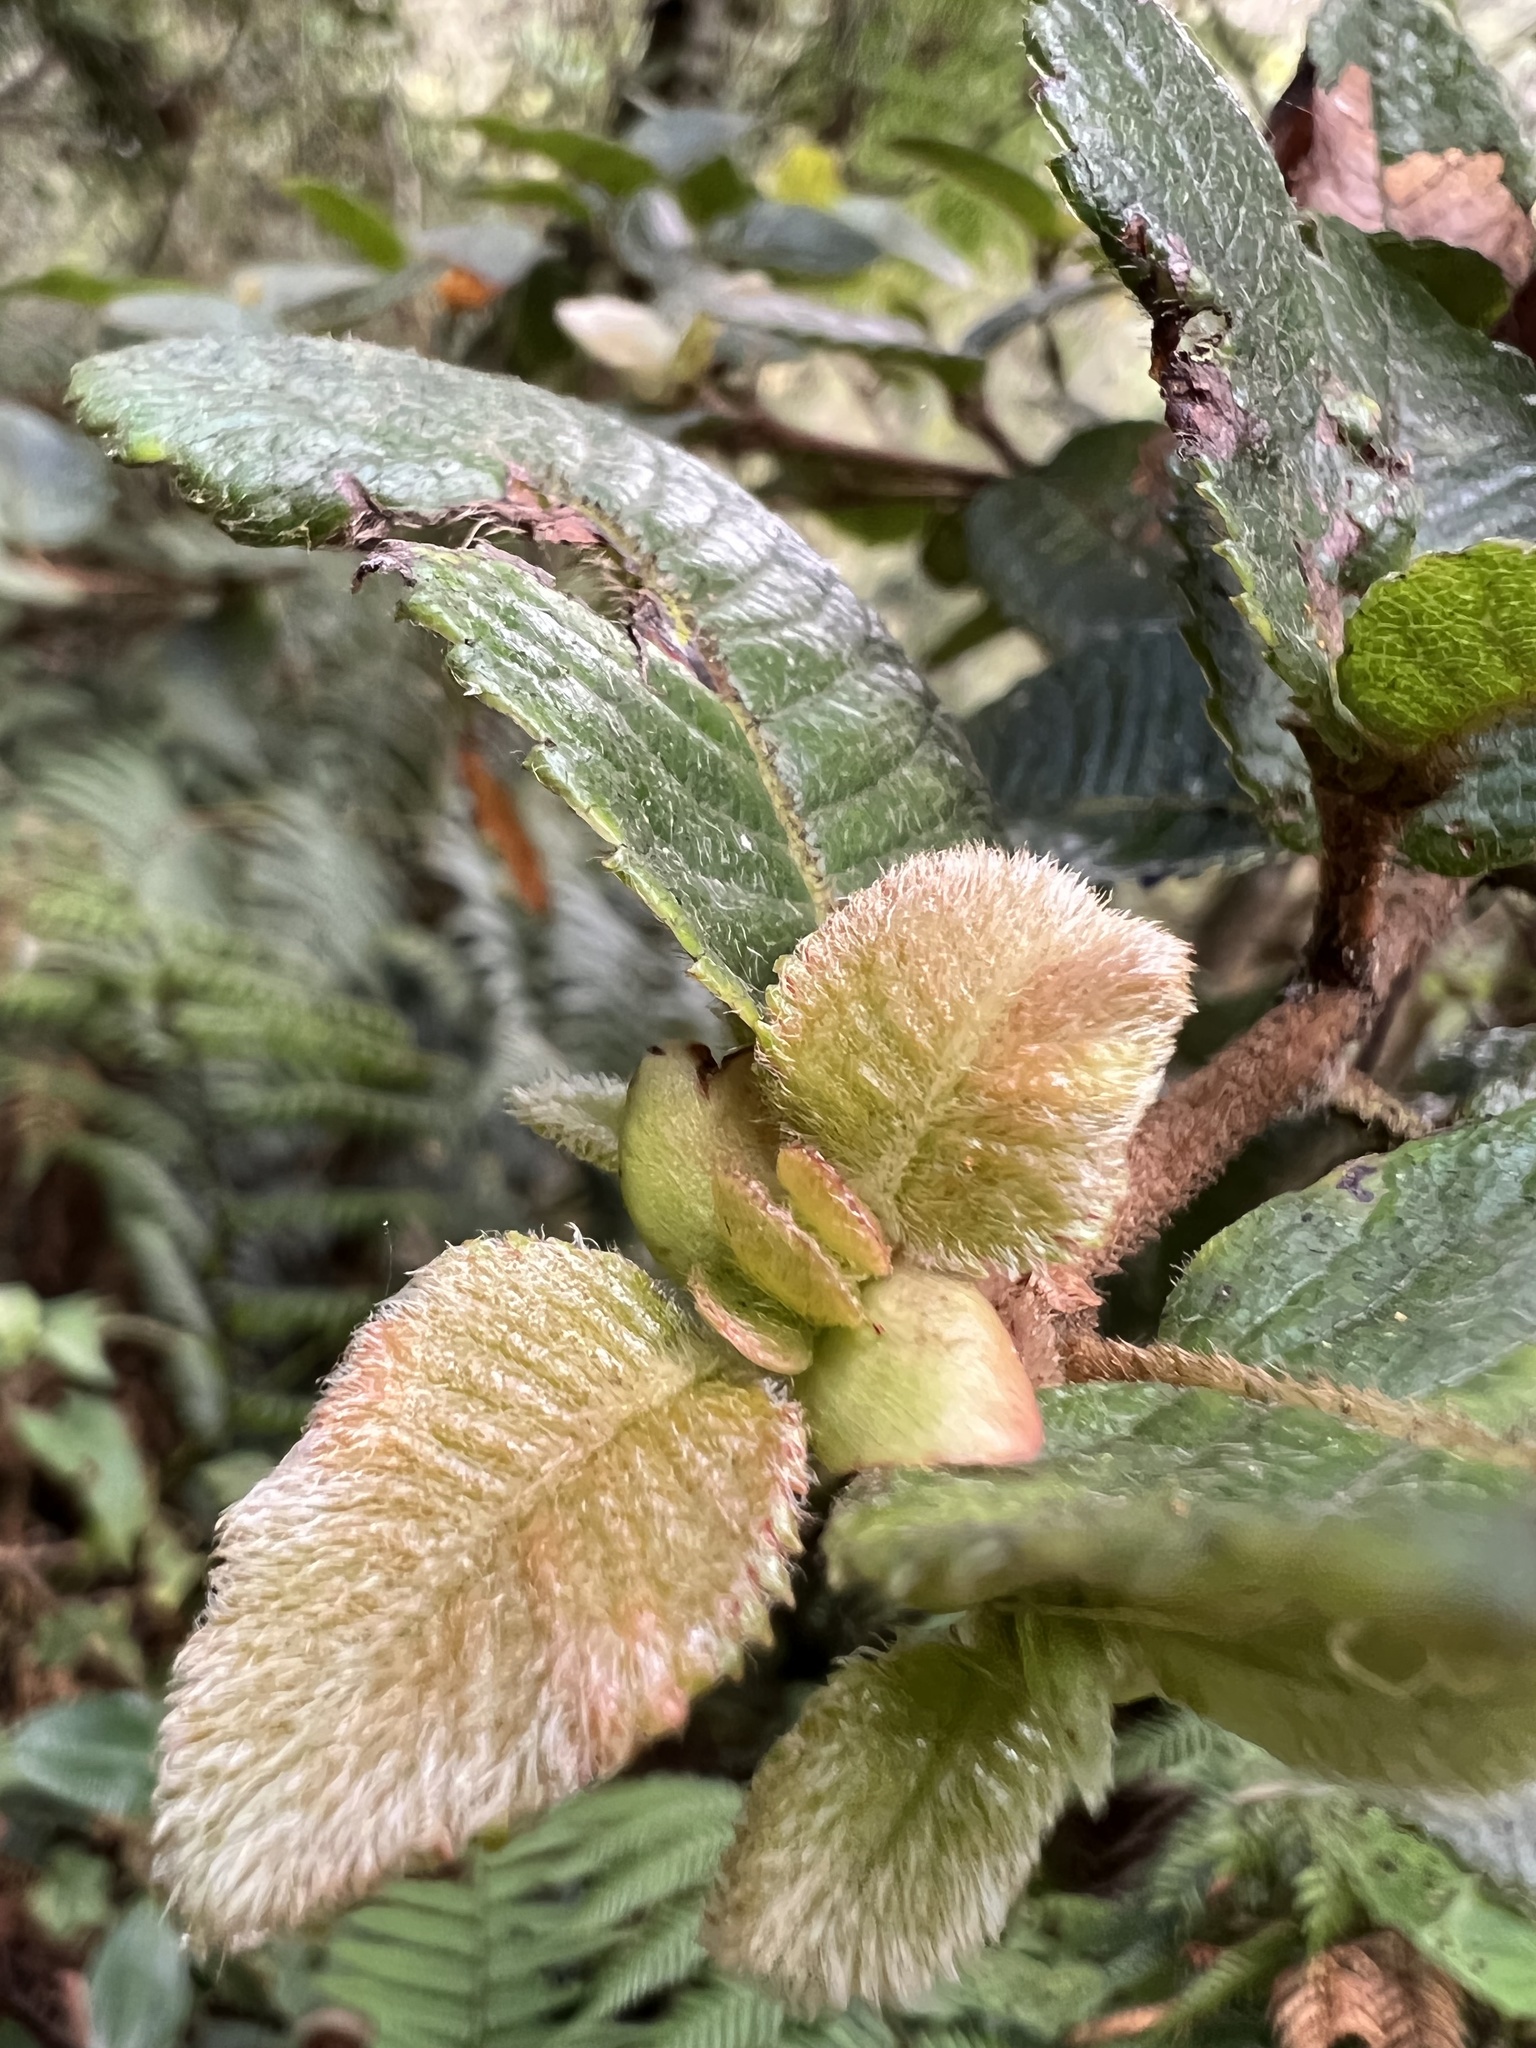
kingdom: Plantae
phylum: Tracheophyta
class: Magnoliopsida
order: Oxalidales
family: Cunoniaceae
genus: Weinmannia
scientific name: Weinmannia rollottii
